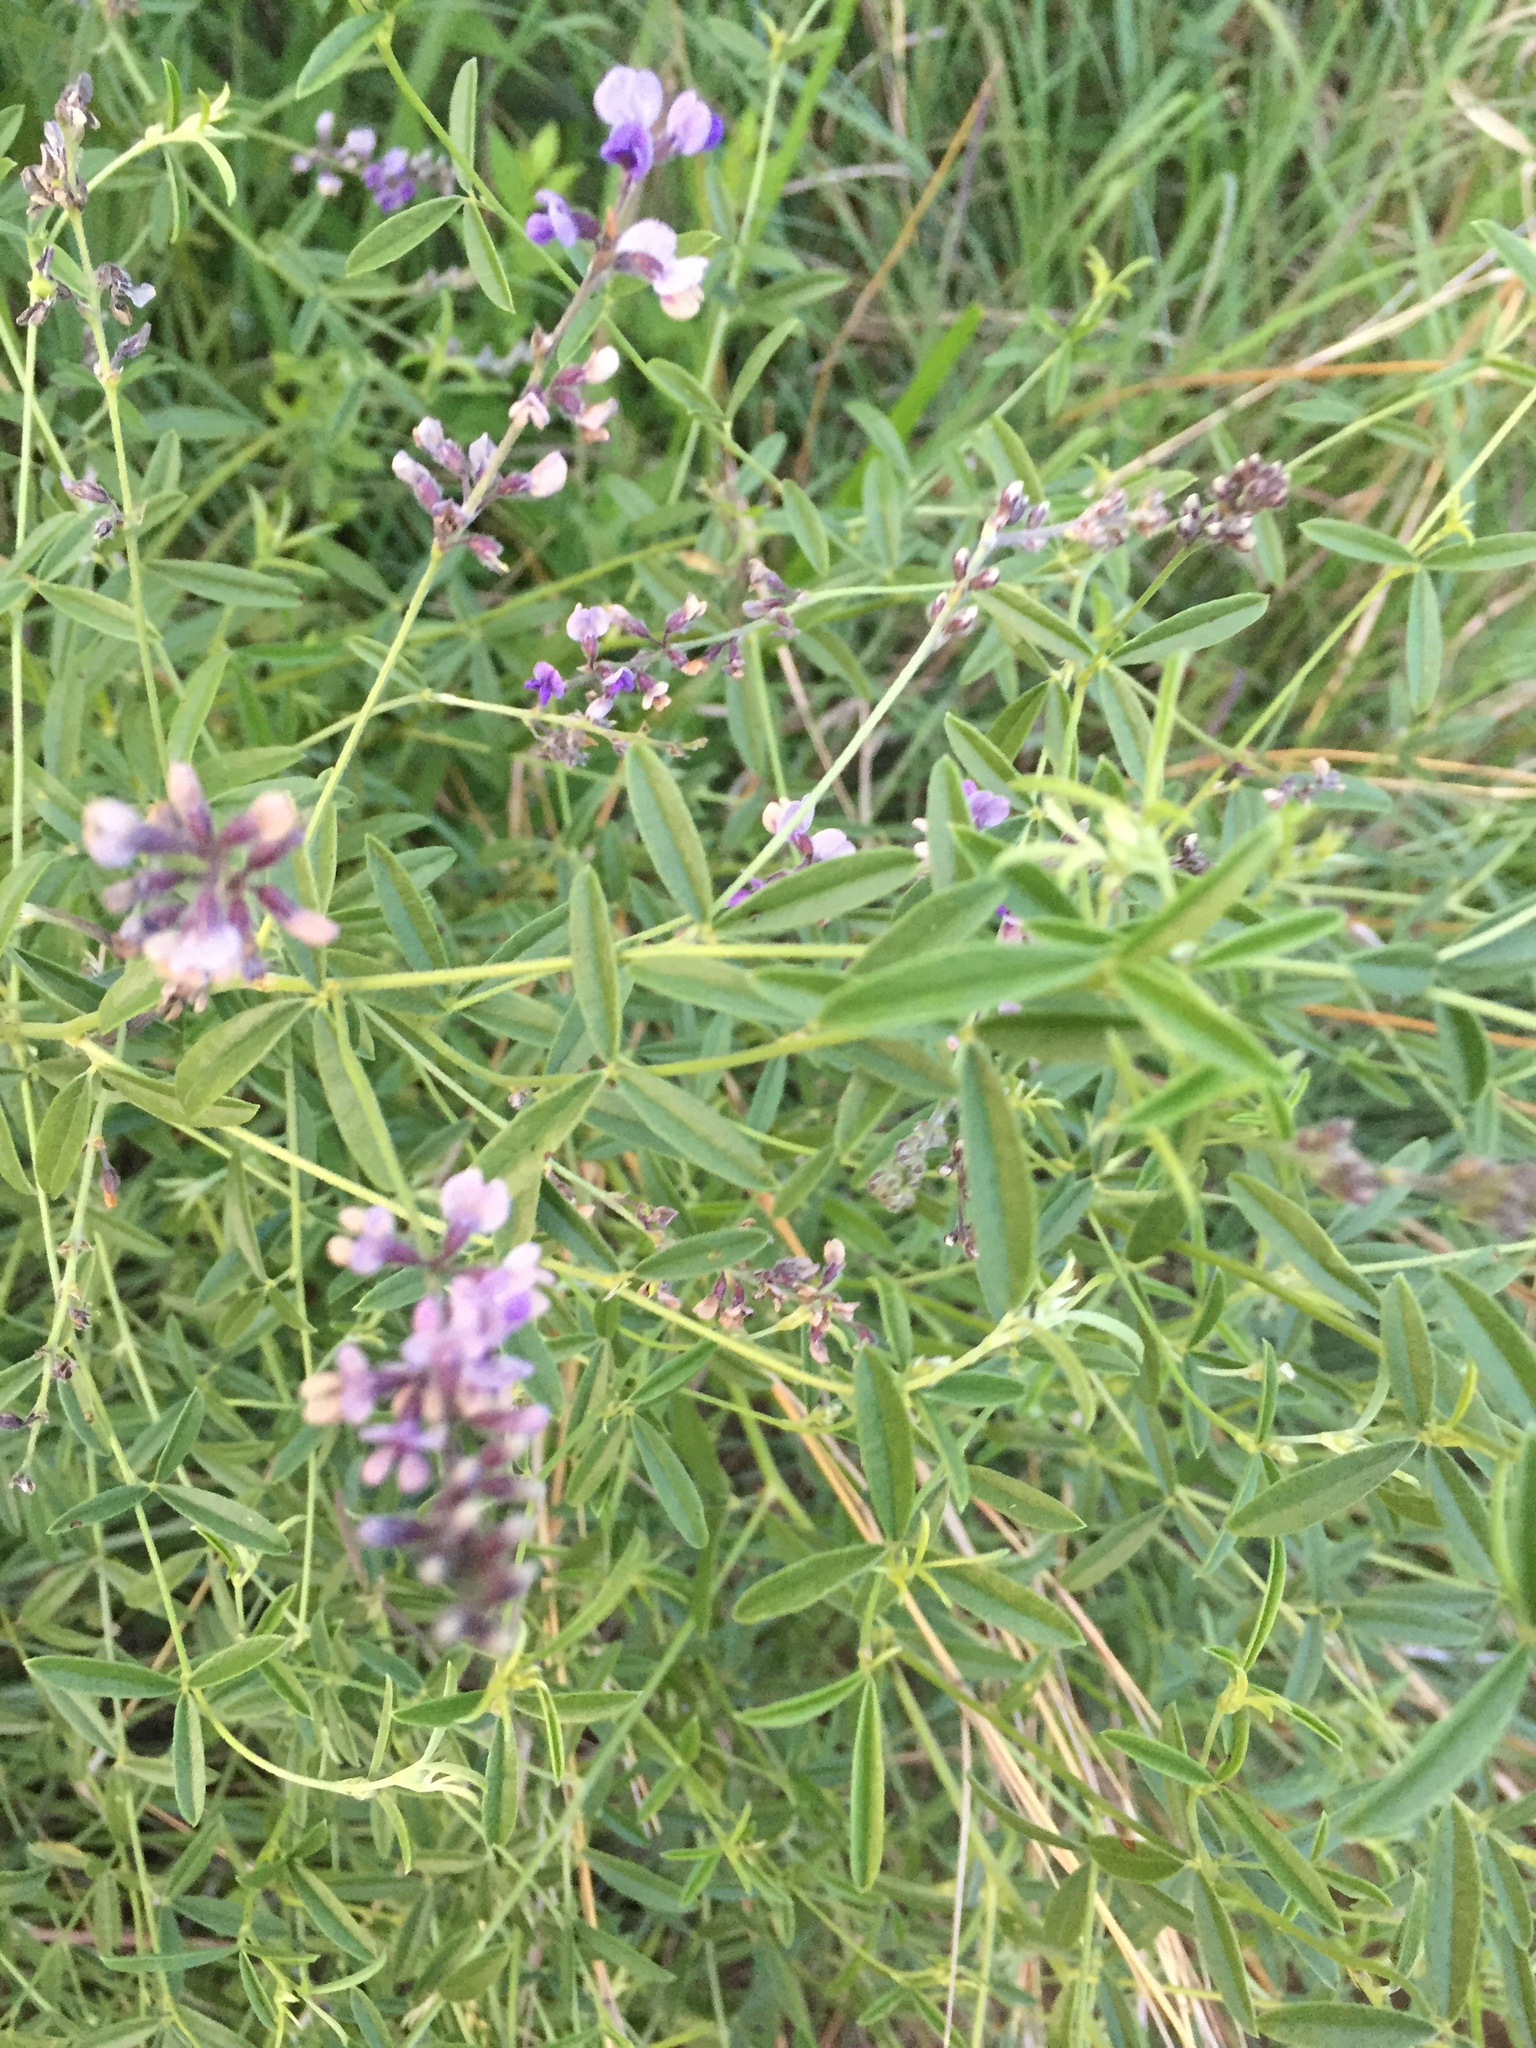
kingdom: Plantae
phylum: Tracheophyta
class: Magnoliopsida
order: Fabales
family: Fabaceae
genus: Pediomelum
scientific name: Pediomelum tenuiflorum
